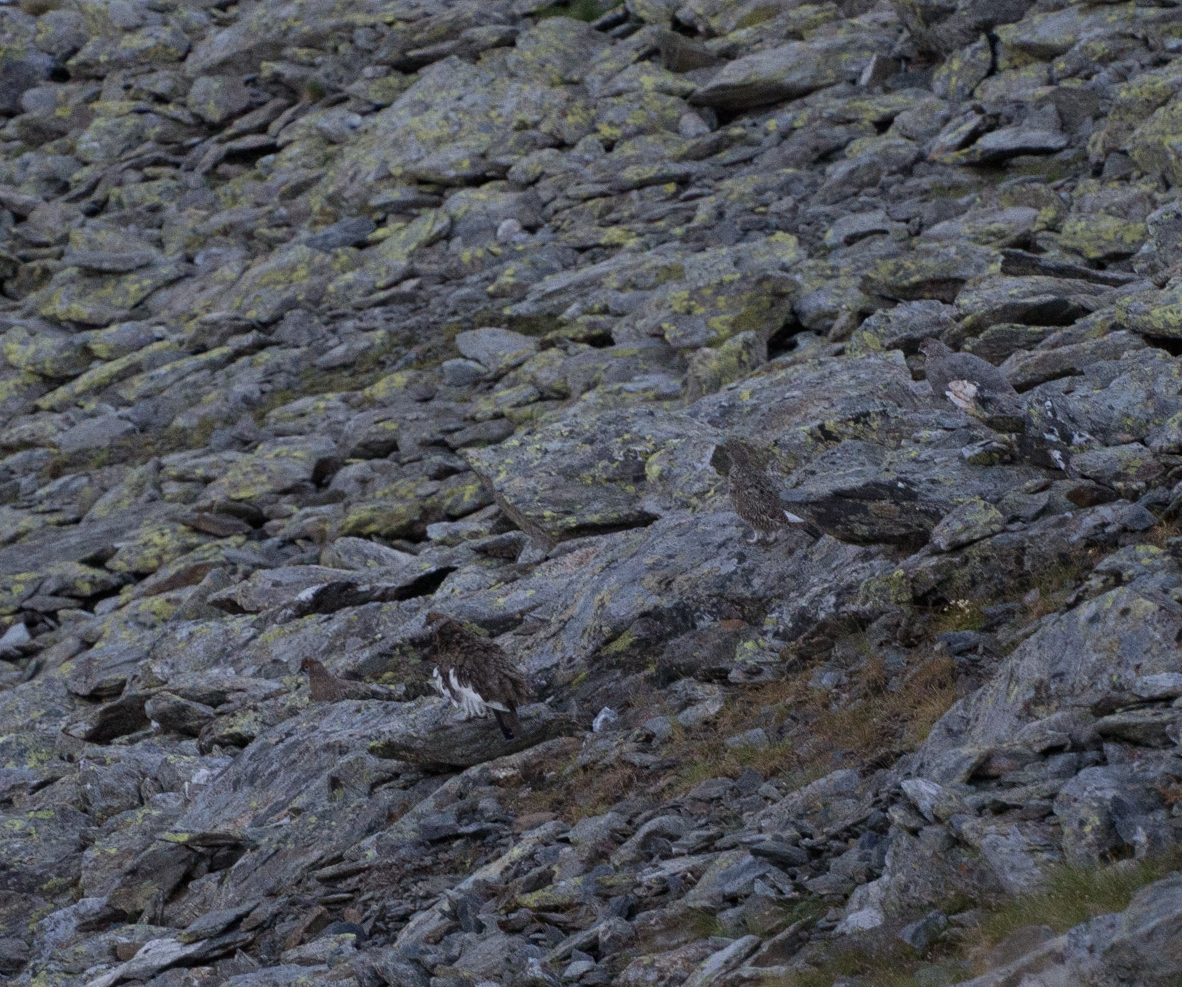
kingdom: Animalia
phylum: Chordata
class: Aves
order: Galliformes
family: Phasianidae
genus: Lagopus
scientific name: Lagopus muta
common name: Rock ptarmigan
